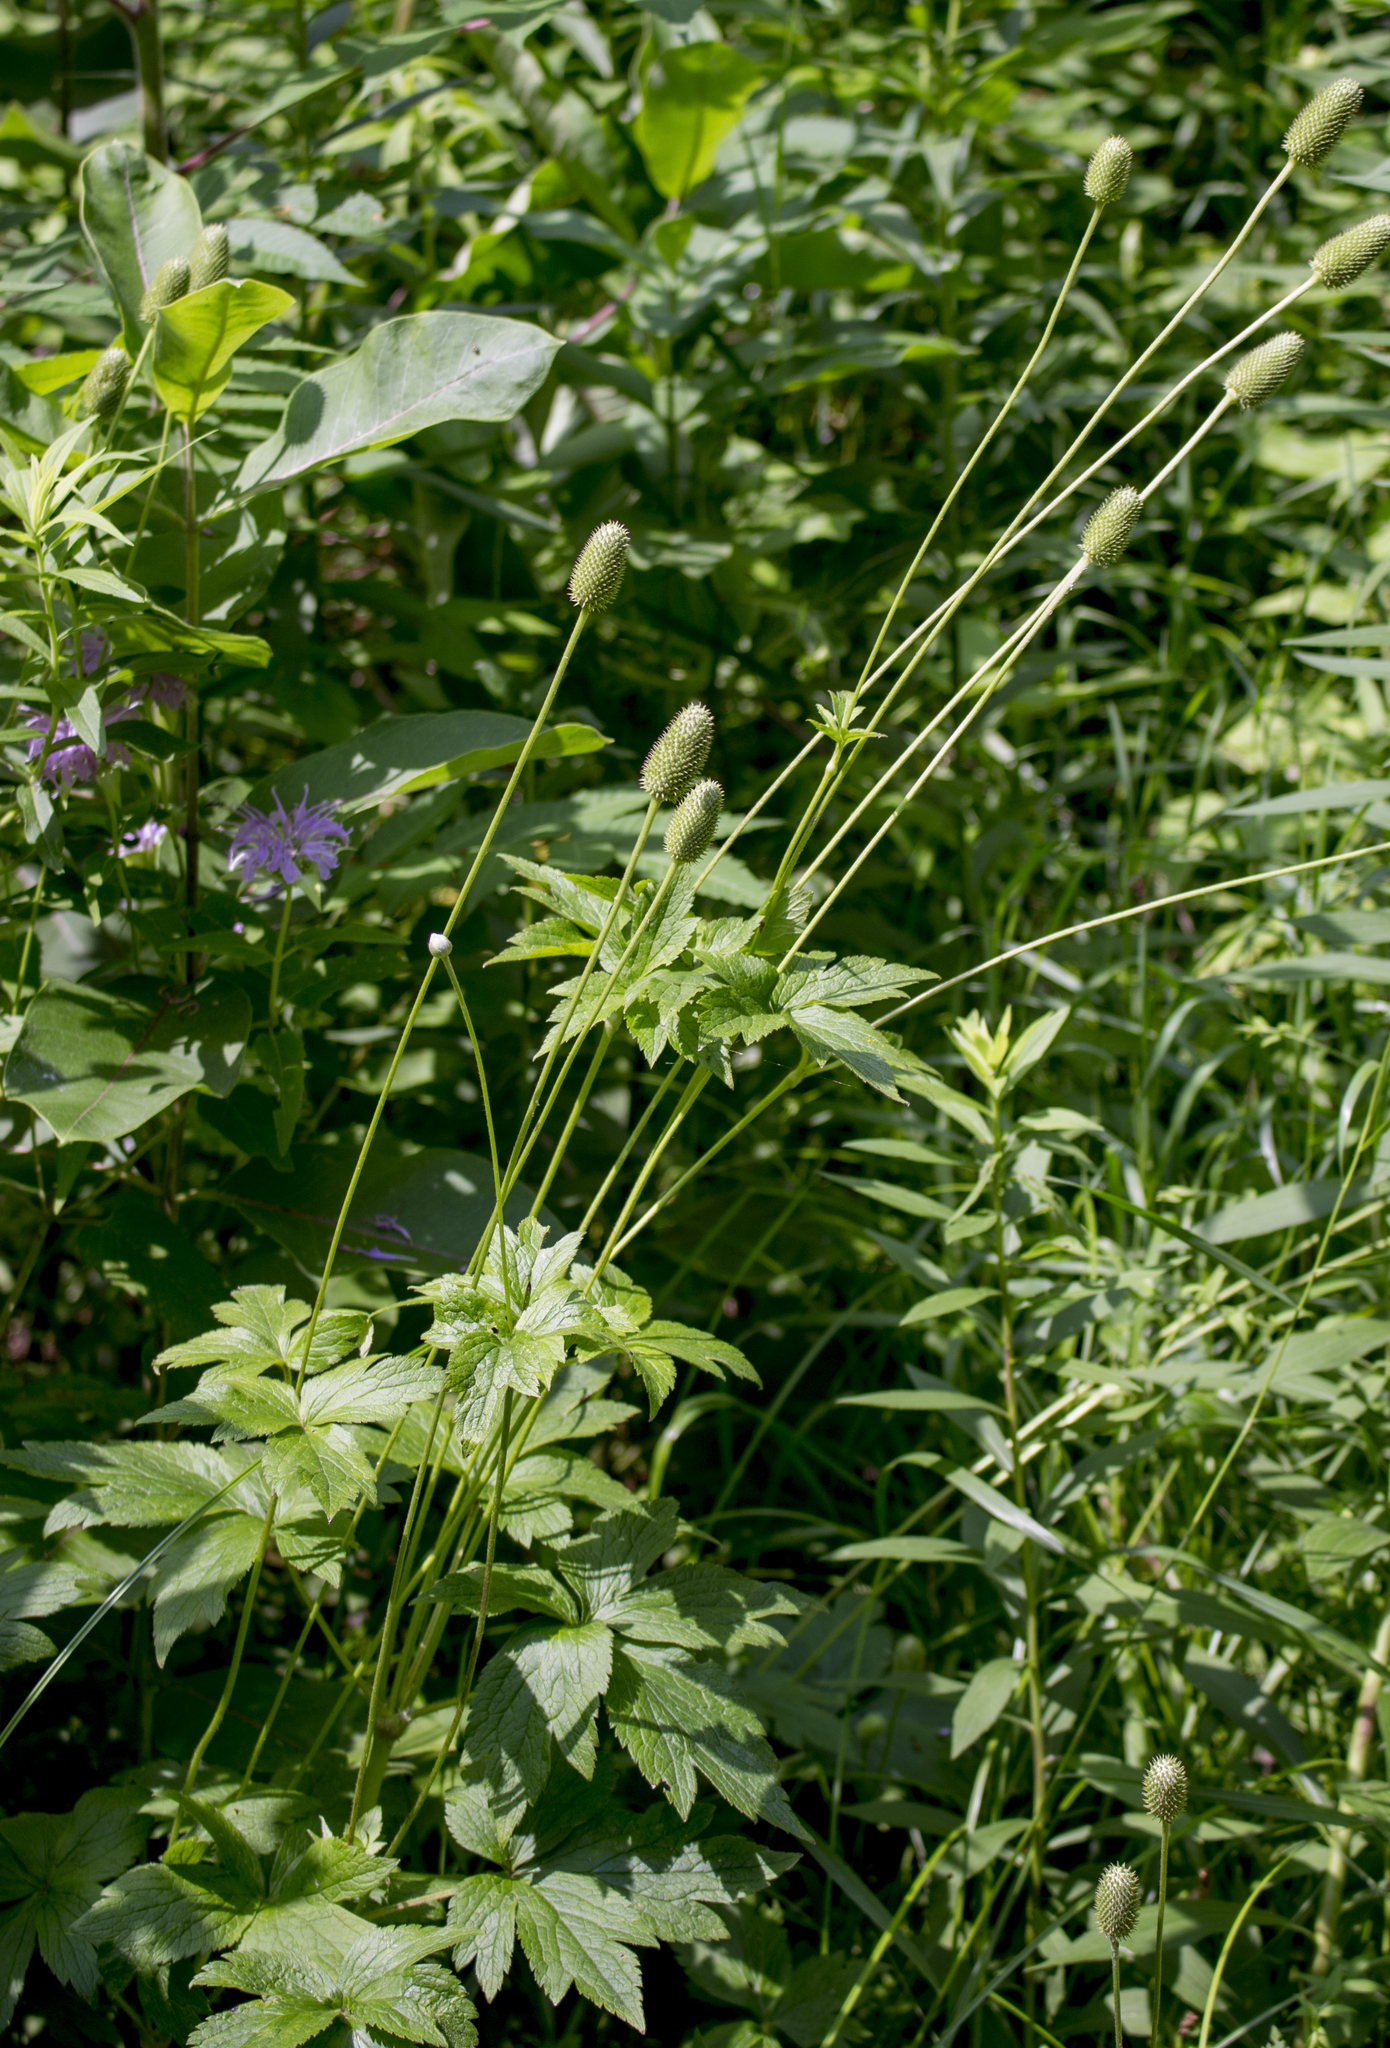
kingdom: Plantae
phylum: Tracheophyta
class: Magnoliopsida
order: Ranunculales
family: Ranunculaceae
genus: Anemone
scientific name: Anemone virginiana
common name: Tall anemone
